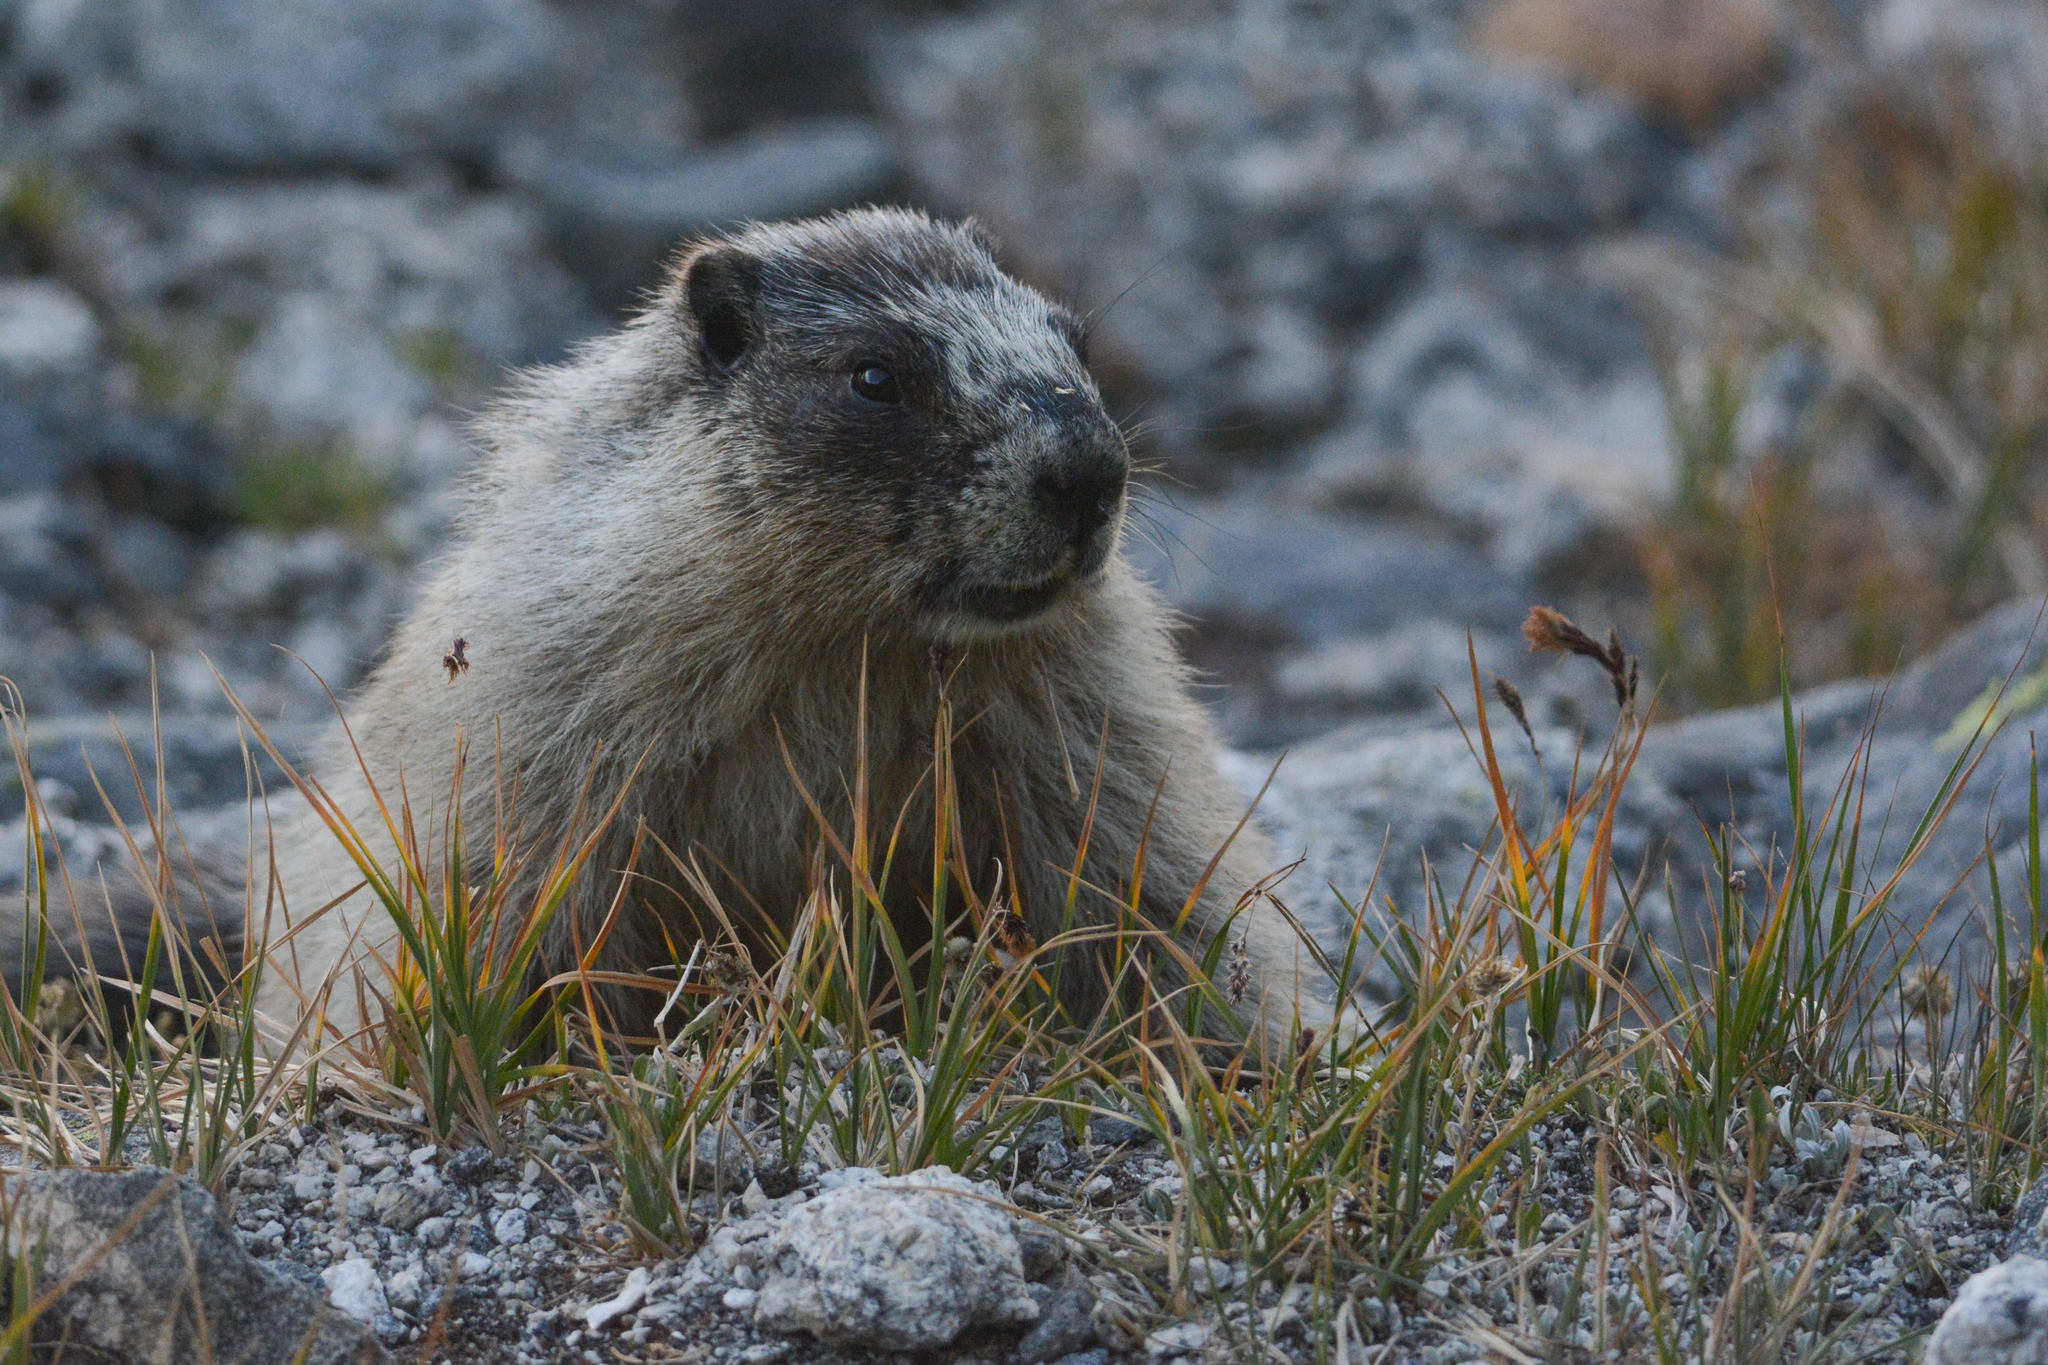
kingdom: Animalia
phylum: Chordata
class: Mammalia
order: Rodentia
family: Sciuridae
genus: Marmota
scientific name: Marmota caligata
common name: Hoary marmot
